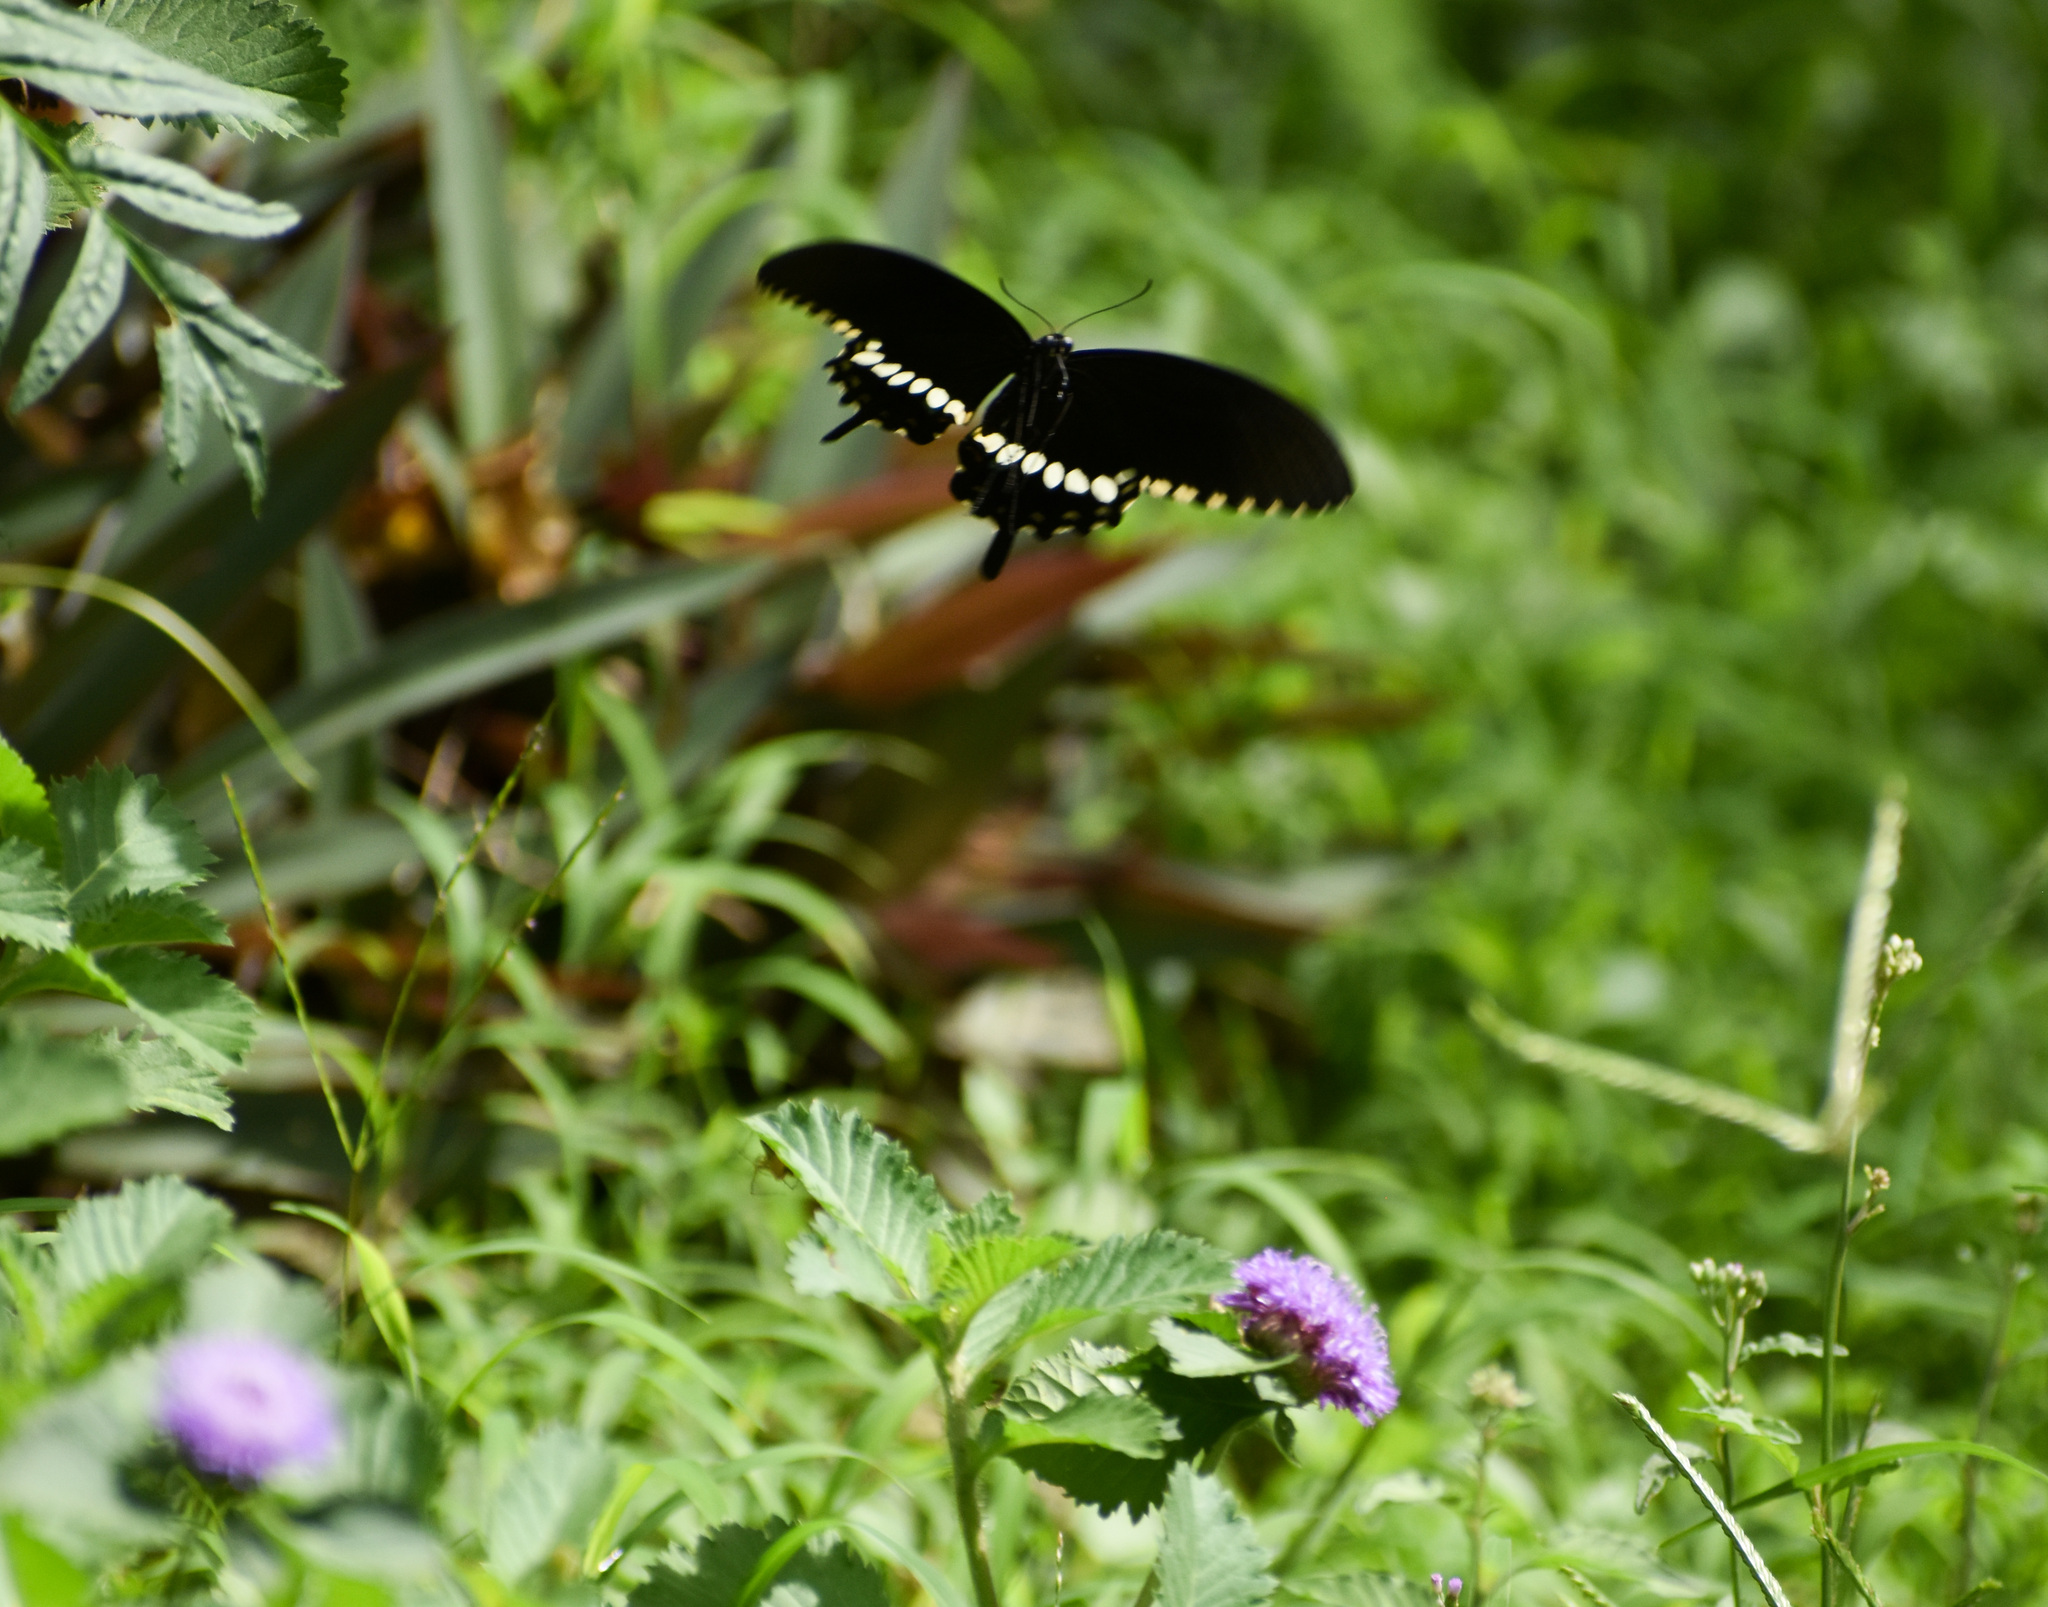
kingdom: Animalia
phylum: Arthropoda
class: Insecta
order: Lepidoptera
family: Papilionidae
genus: Papilio
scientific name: Papilio polytes
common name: Common mormon
